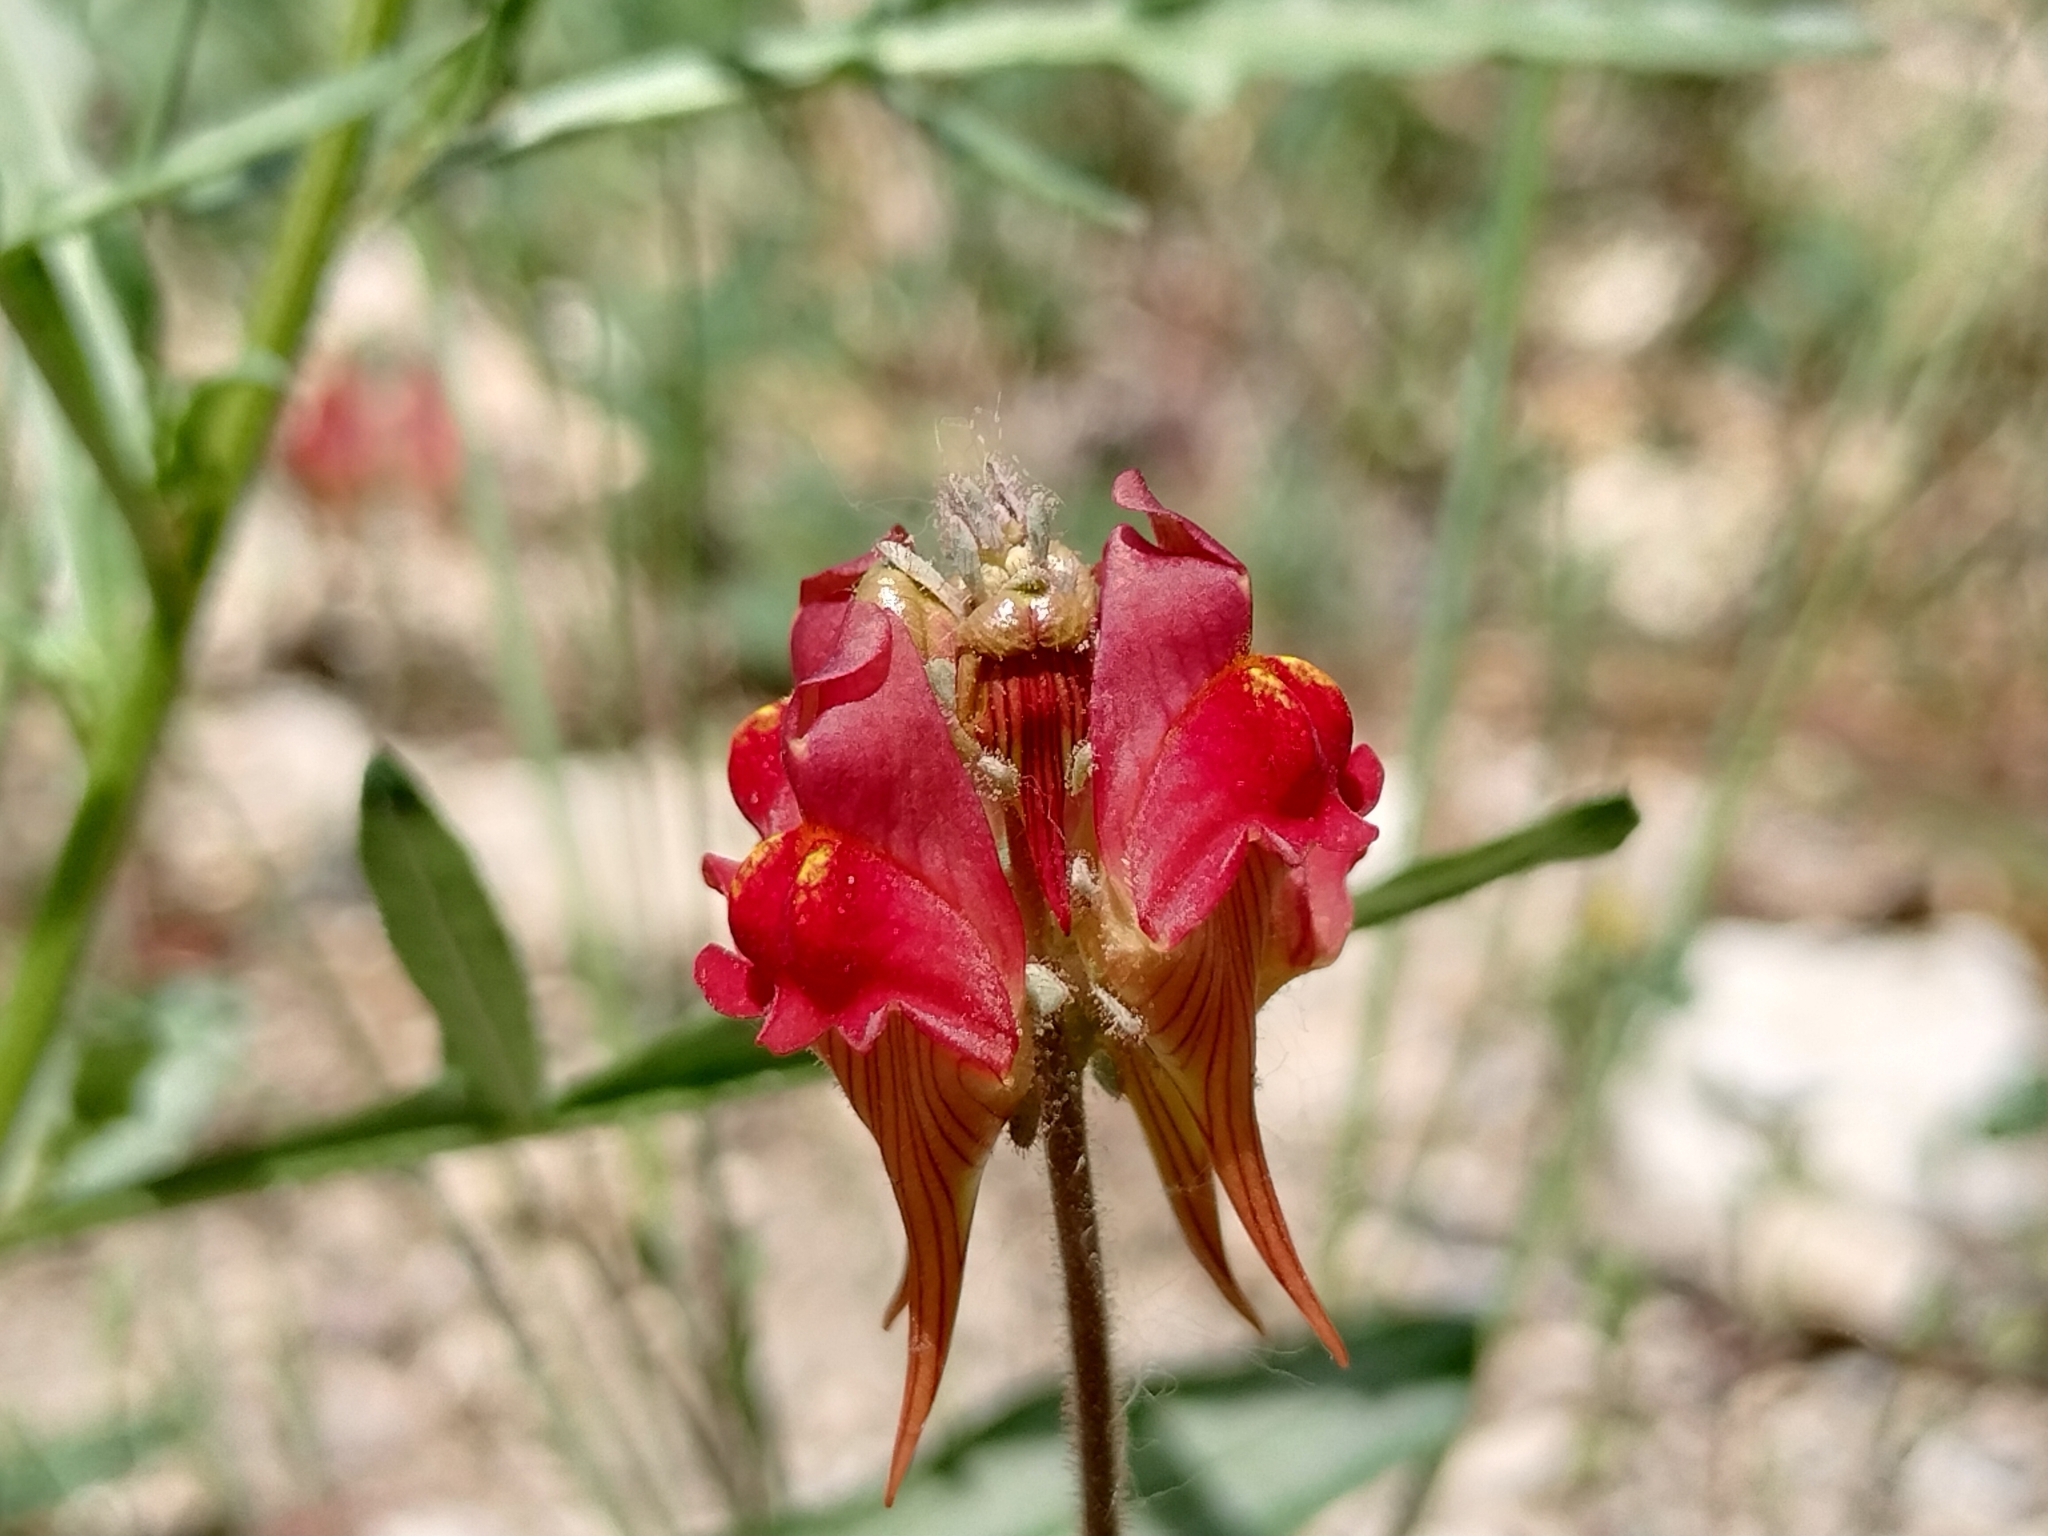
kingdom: Plantae
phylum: Tracheophyta
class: Magnoliopsida
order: Lamiales
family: Plantaginaceae
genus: Linaria
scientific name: Linaria aeruginea
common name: Roadside toadflax
